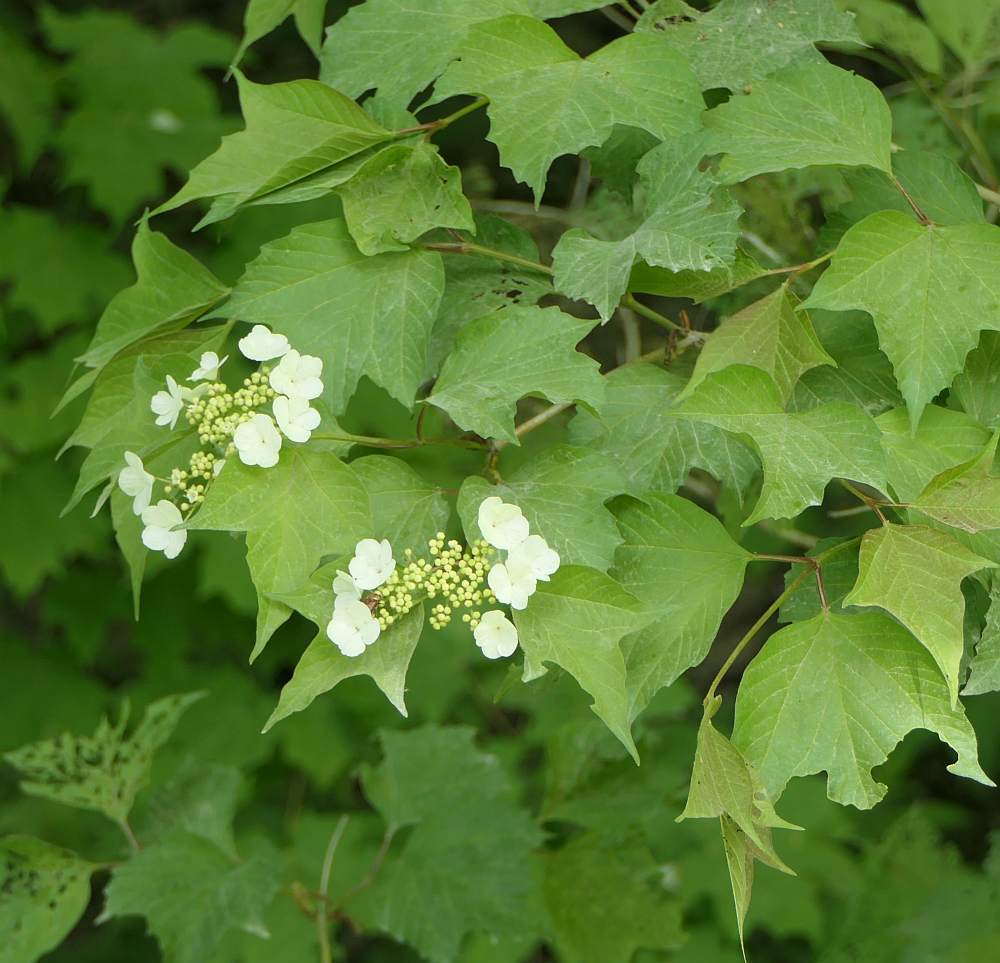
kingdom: Plantae
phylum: Tracheophyta
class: Magnoliopsida
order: Dipsacales
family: Viburnaceae
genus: Viburnum
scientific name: Viburnum opulus
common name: Guelder-rose
